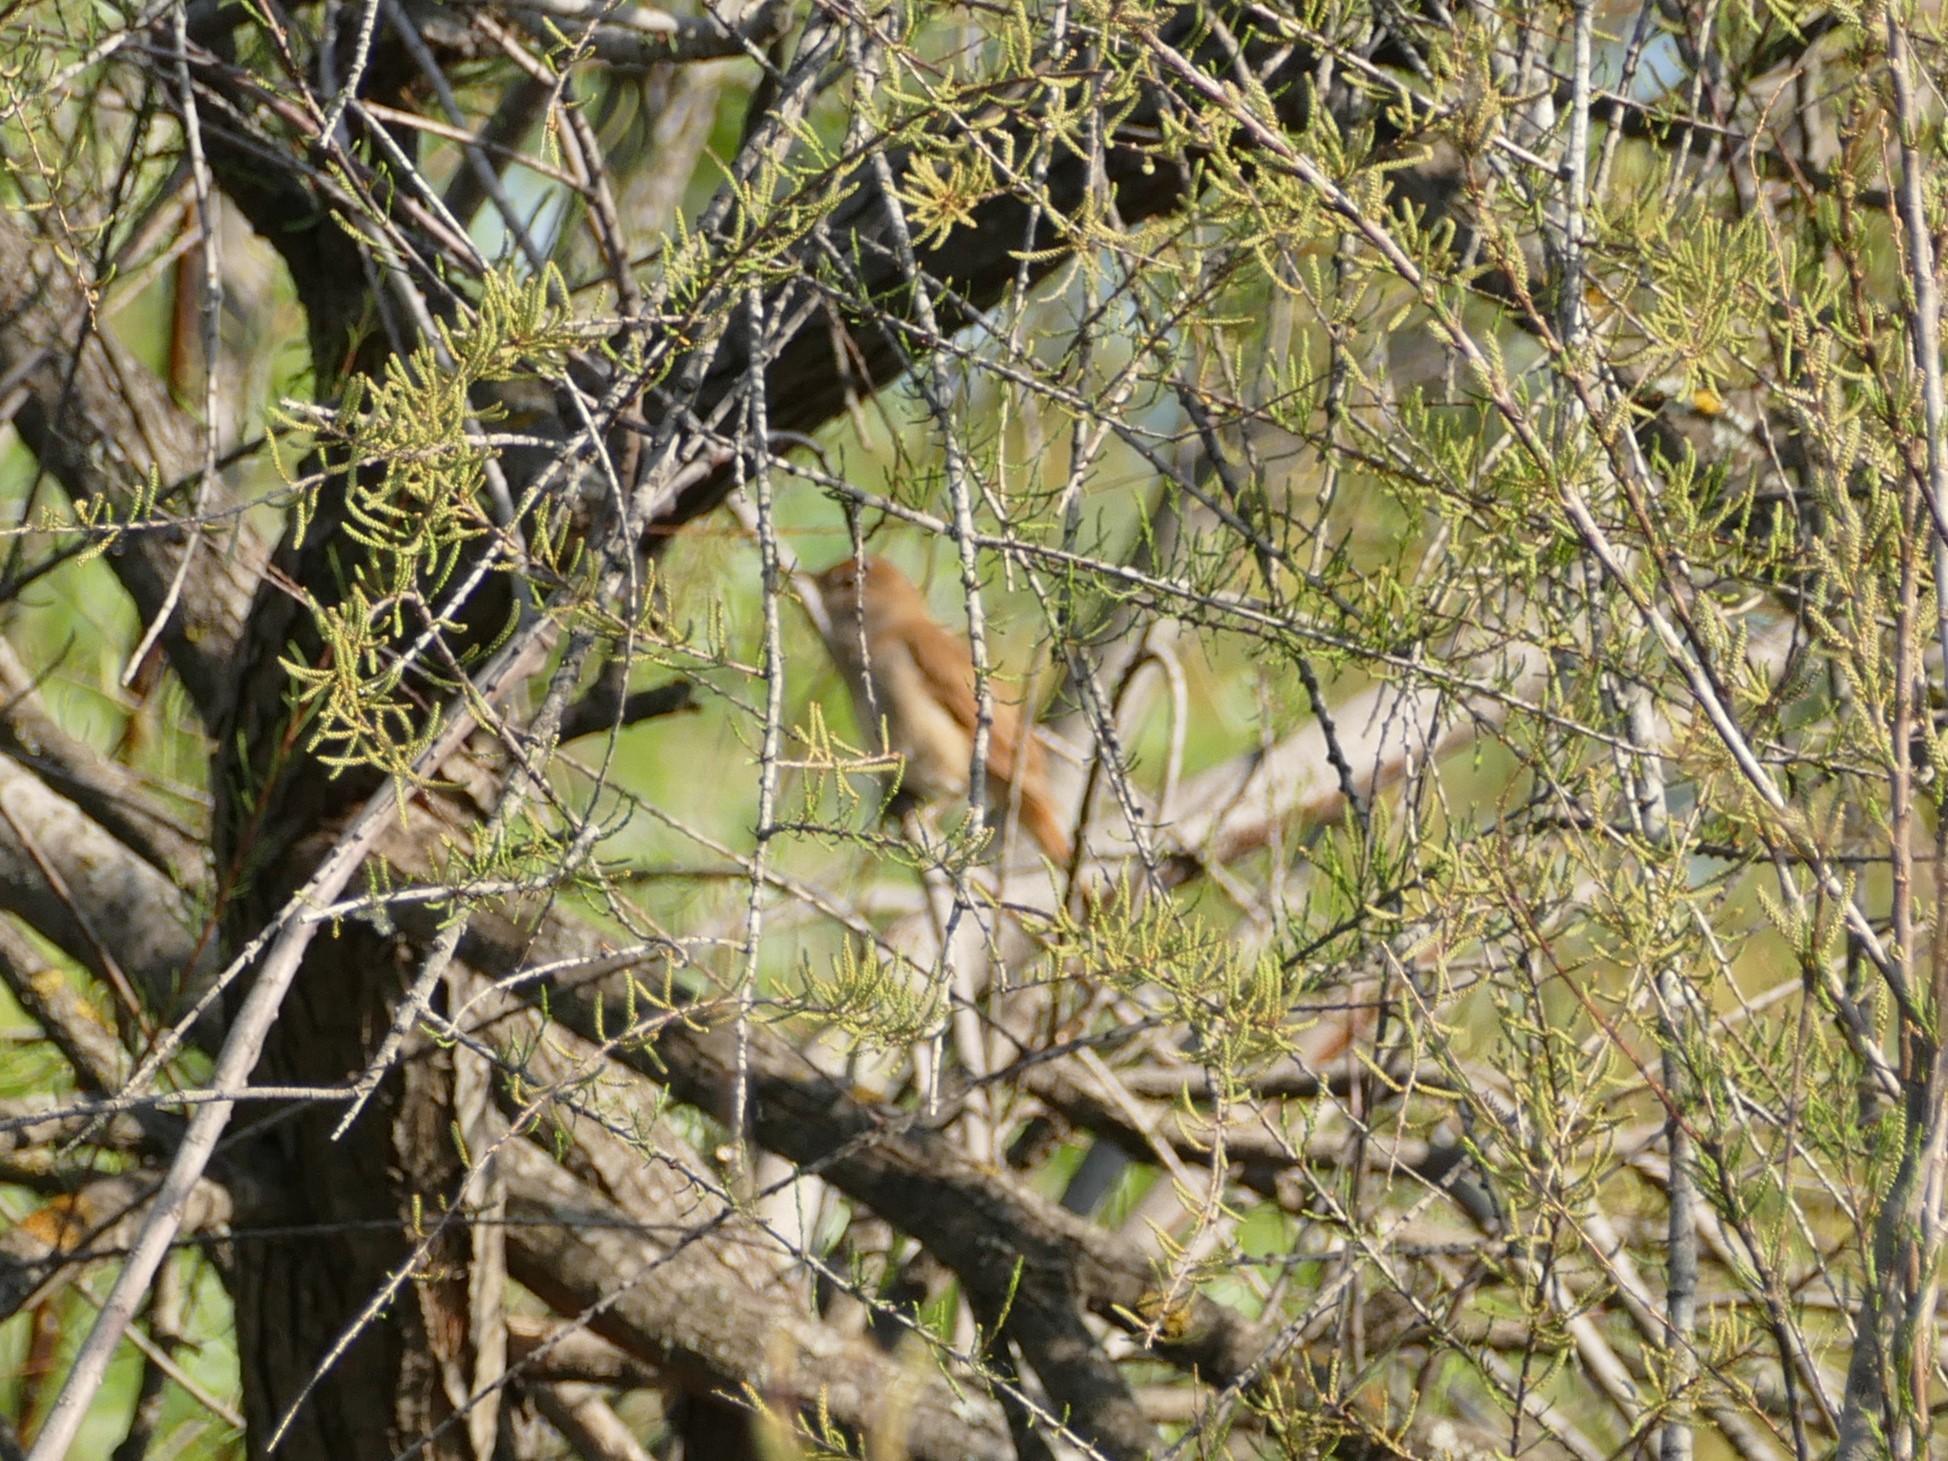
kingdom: Animalia
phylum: Chordata
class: Aves
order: Passeriformes
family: Muscicapidae
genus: Luscinia
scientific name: Luscinia megarhynchos
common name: Common nightingale
